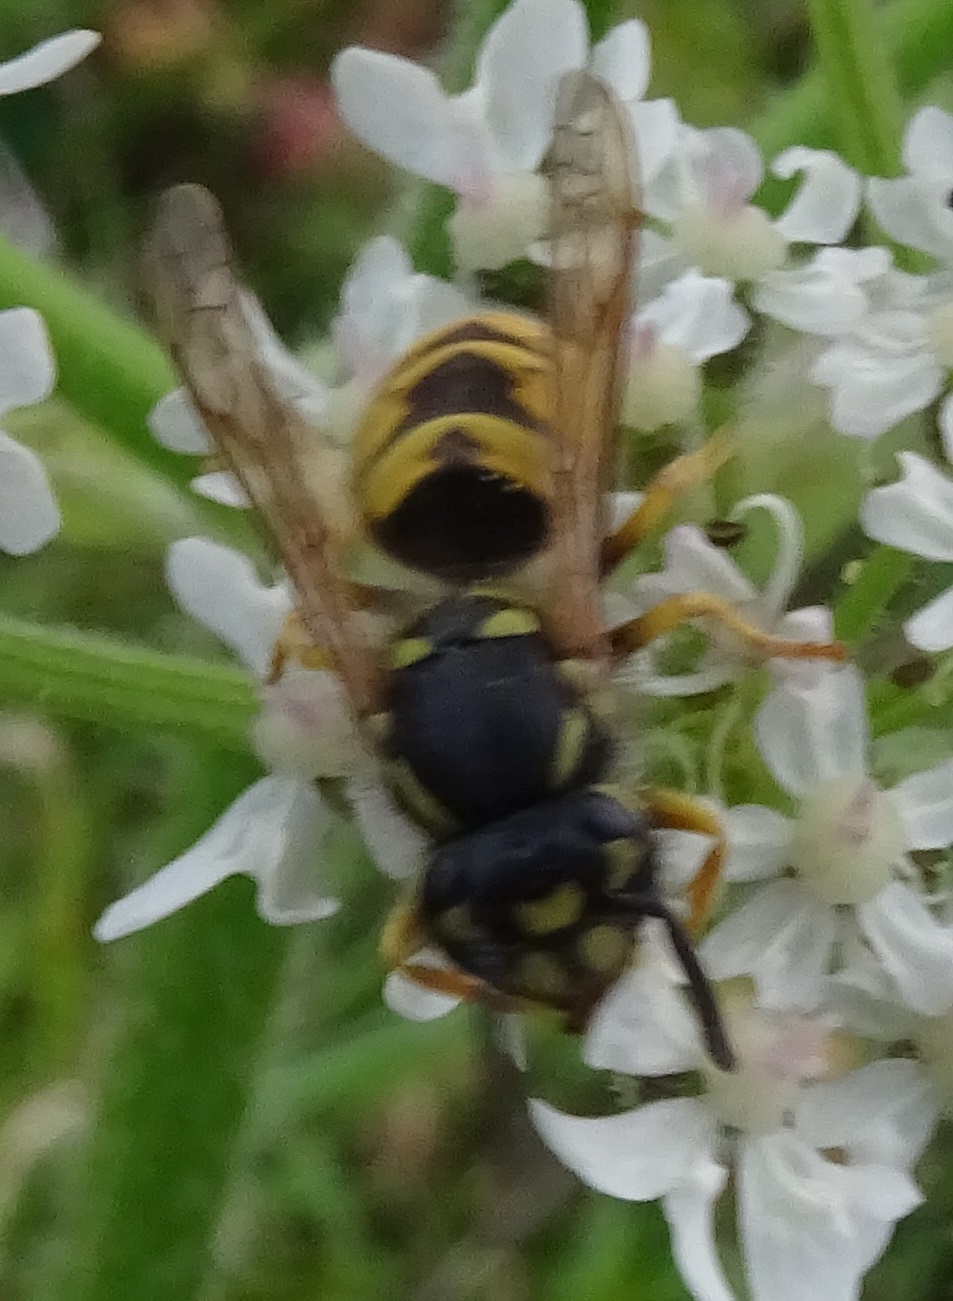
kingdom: Animalia
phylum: Arthropoda
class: Insecta
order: Hymenoptera
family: Vespidae
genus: Vespula
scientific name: Vespula vulgaris
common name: Common wasp
